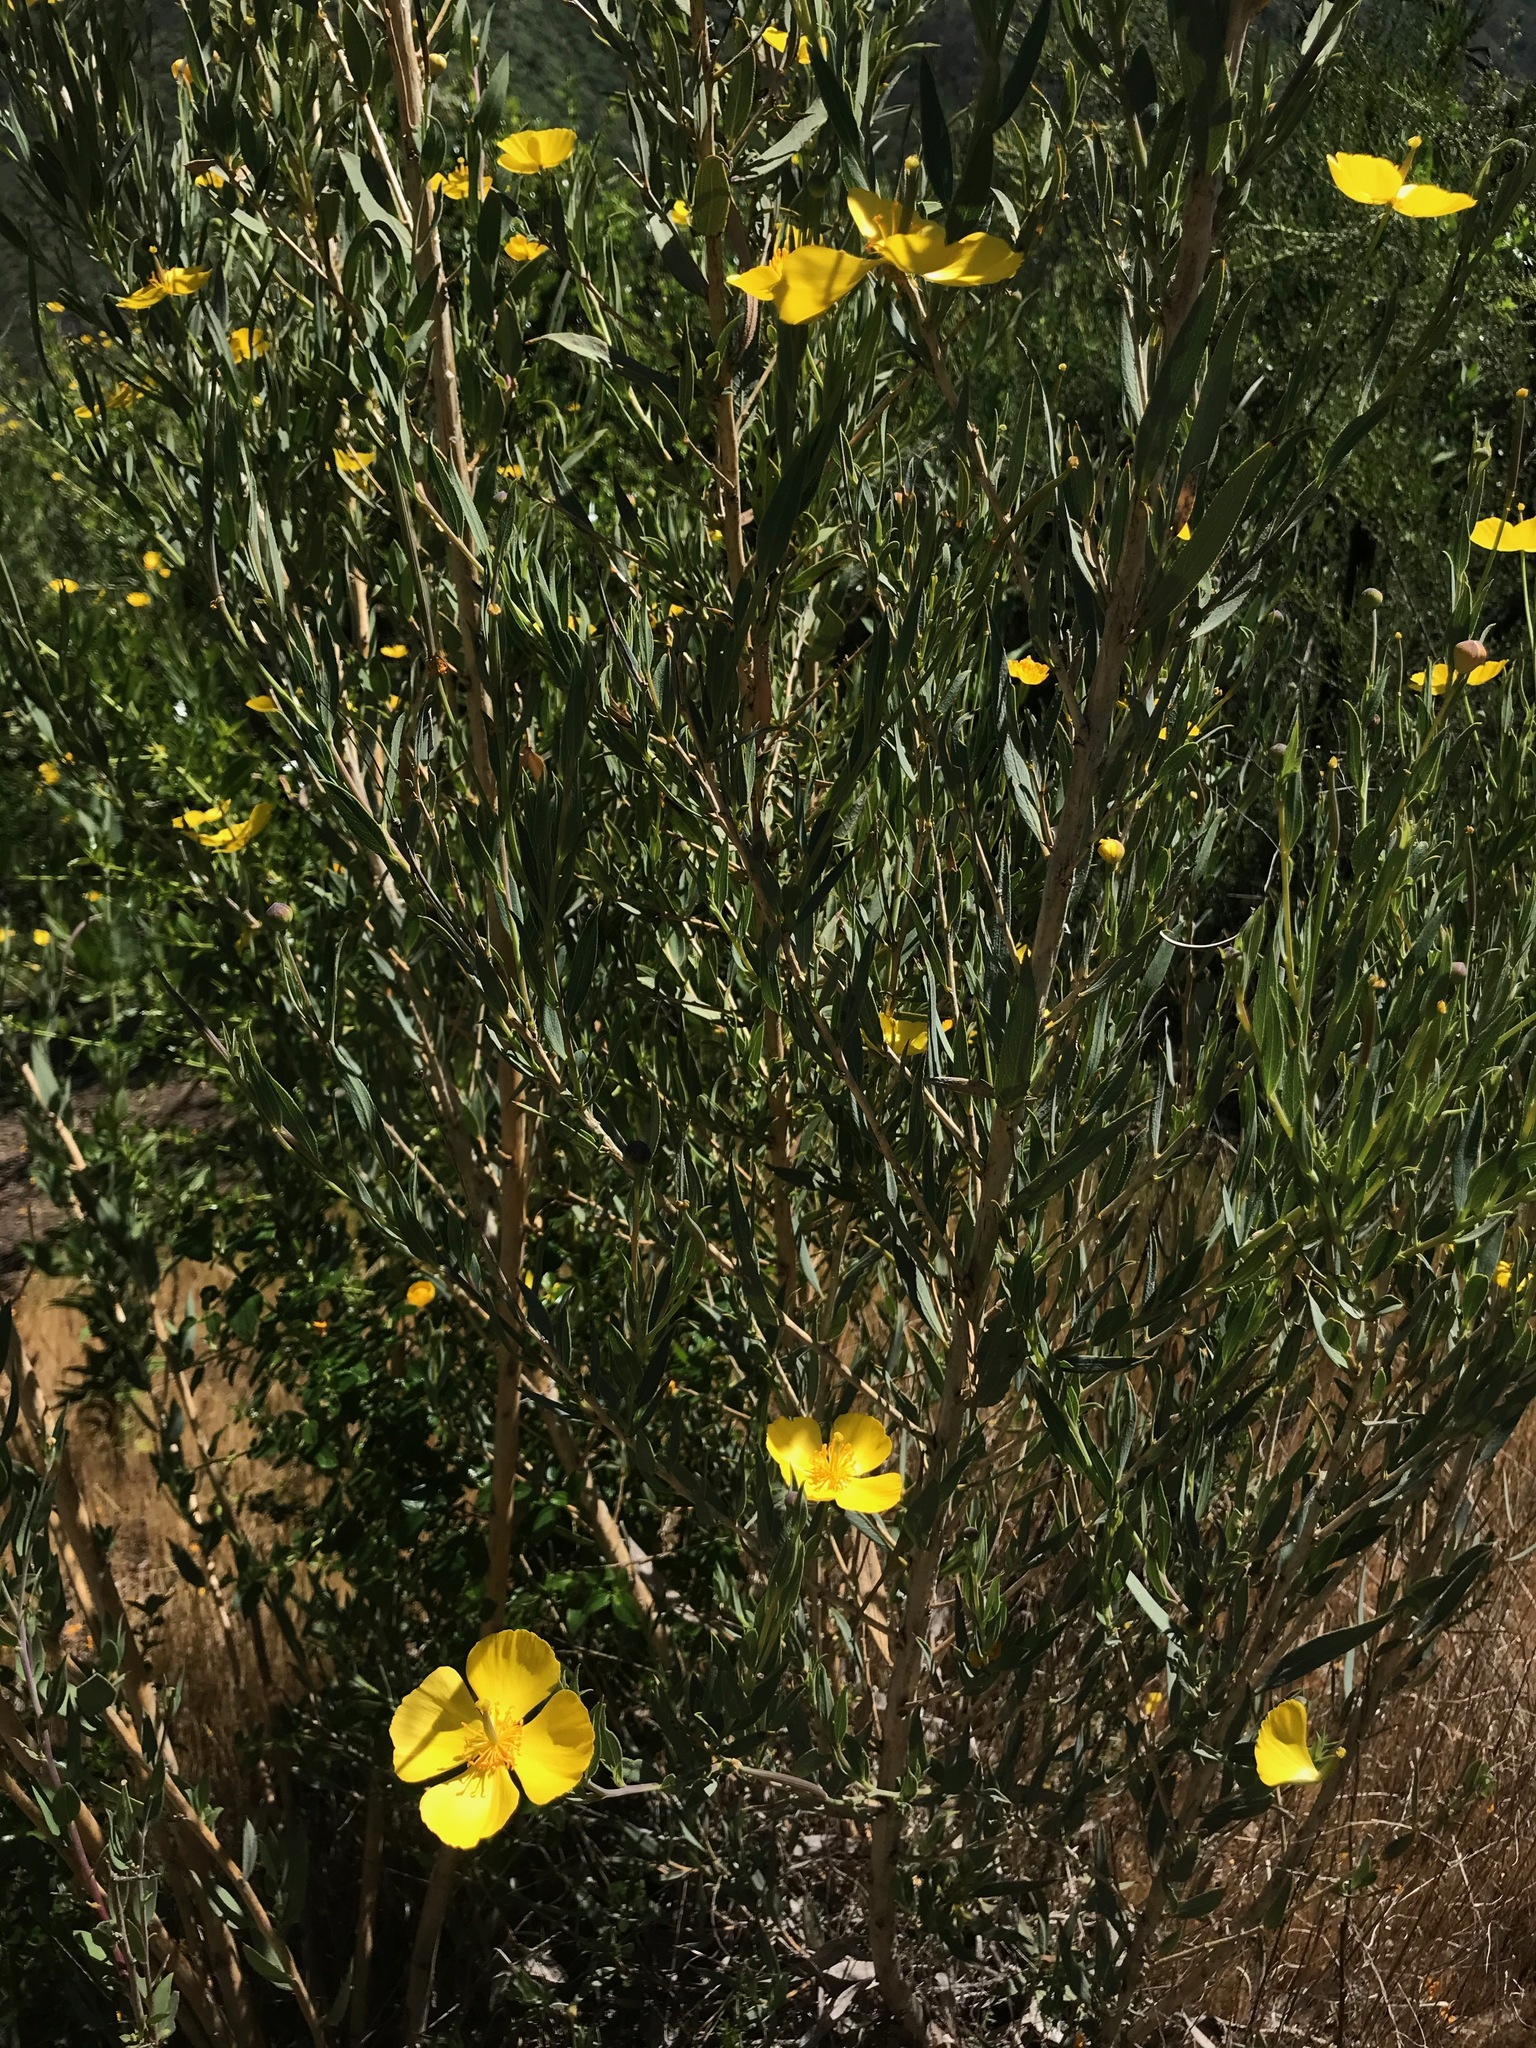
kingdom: Plantae
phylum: Tracheophyta
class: Magnoliopsida
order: Ranunculales
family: Papaveraceae
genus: Dendromecon
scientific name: Dendromecon rigida
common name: Tree poppy
